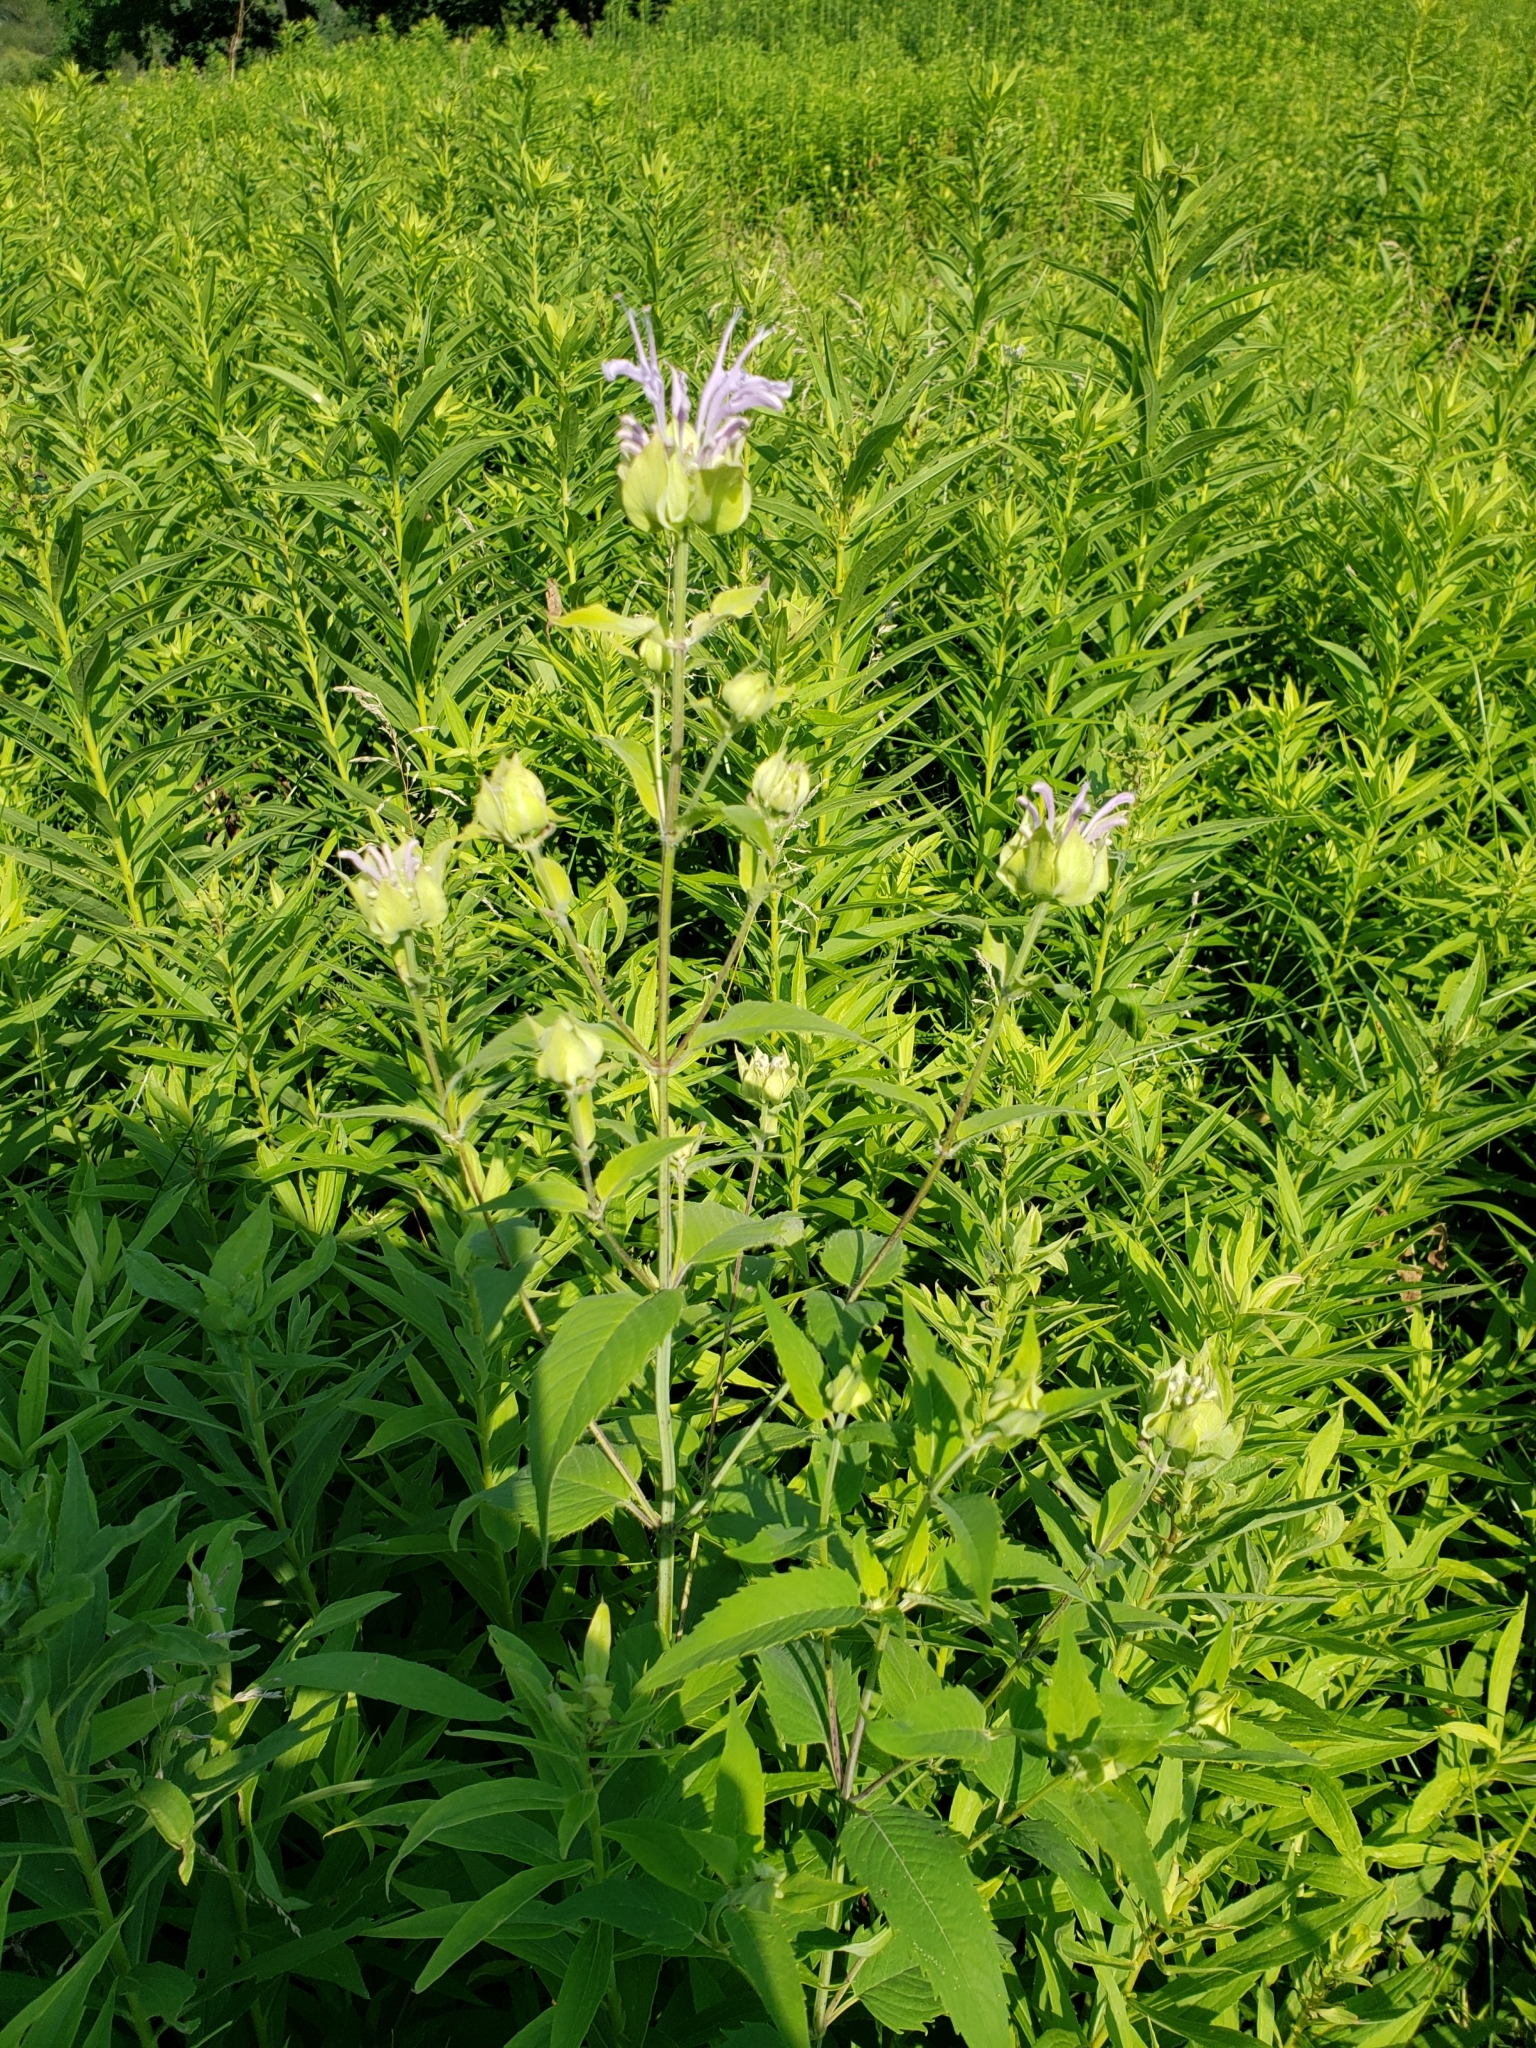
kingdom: Plantae
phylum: Tracheophyta
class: Magnoliopsida
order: Lamiales
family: Lamiaceae
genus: Monarda
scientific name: Monarda fistulosa
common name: Purple beebalm
